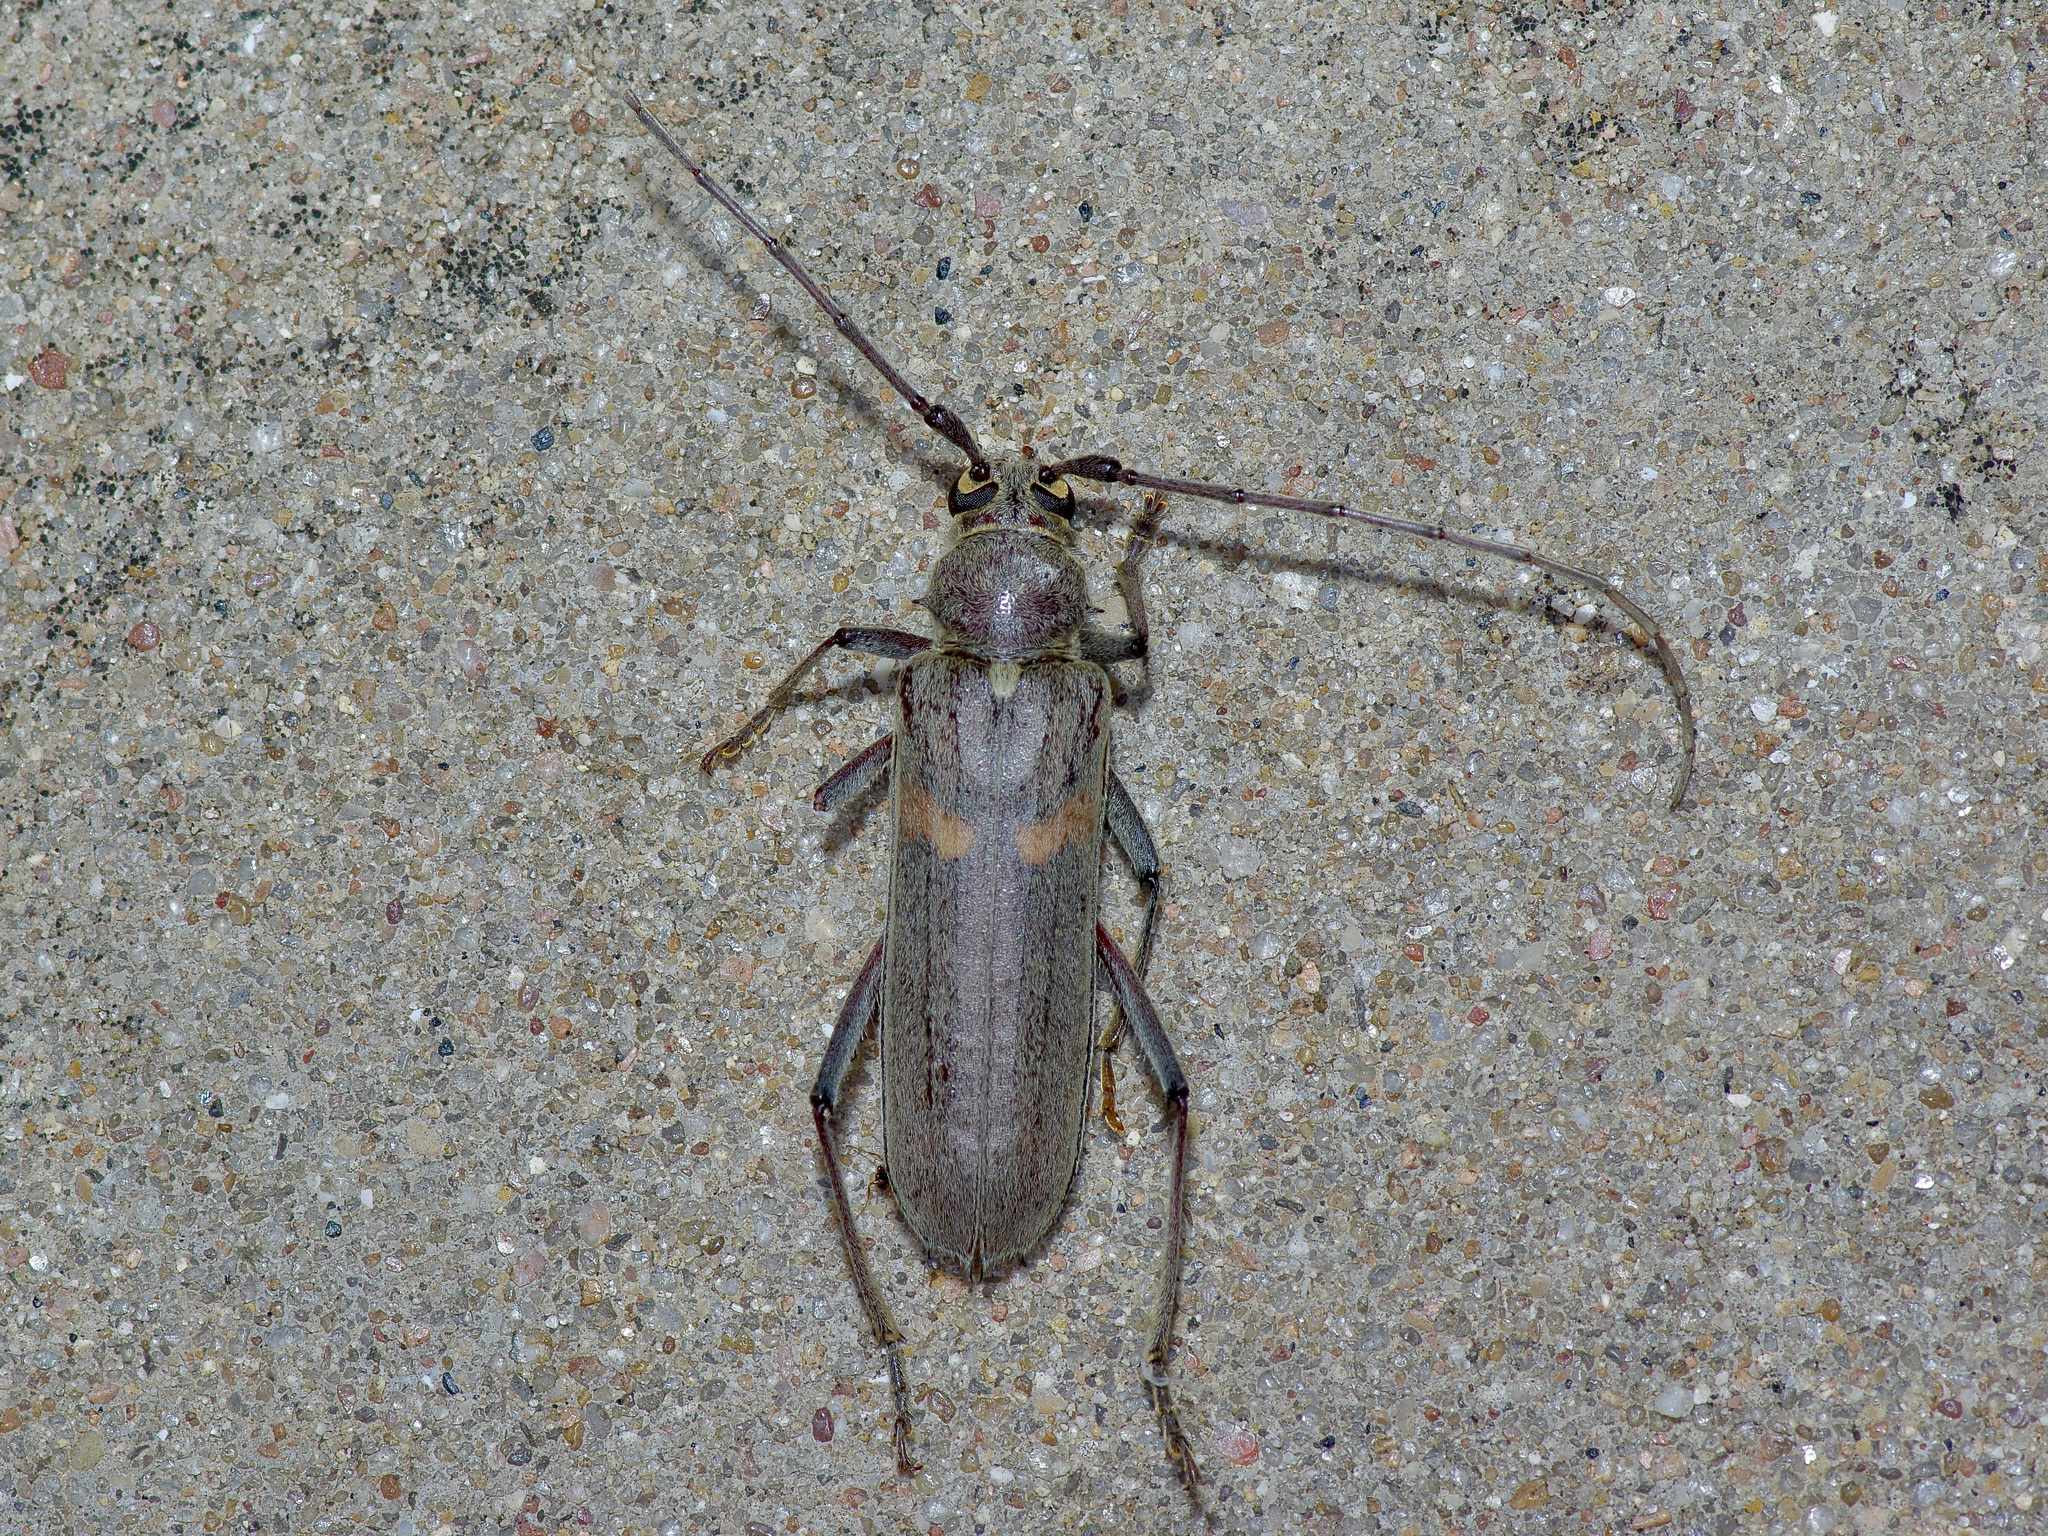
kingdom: Animalia
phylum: Arthropoda
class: Insecta
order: Coleoptera
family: Cerambycidae
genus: Knulliana
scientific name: Knulliana cincta
